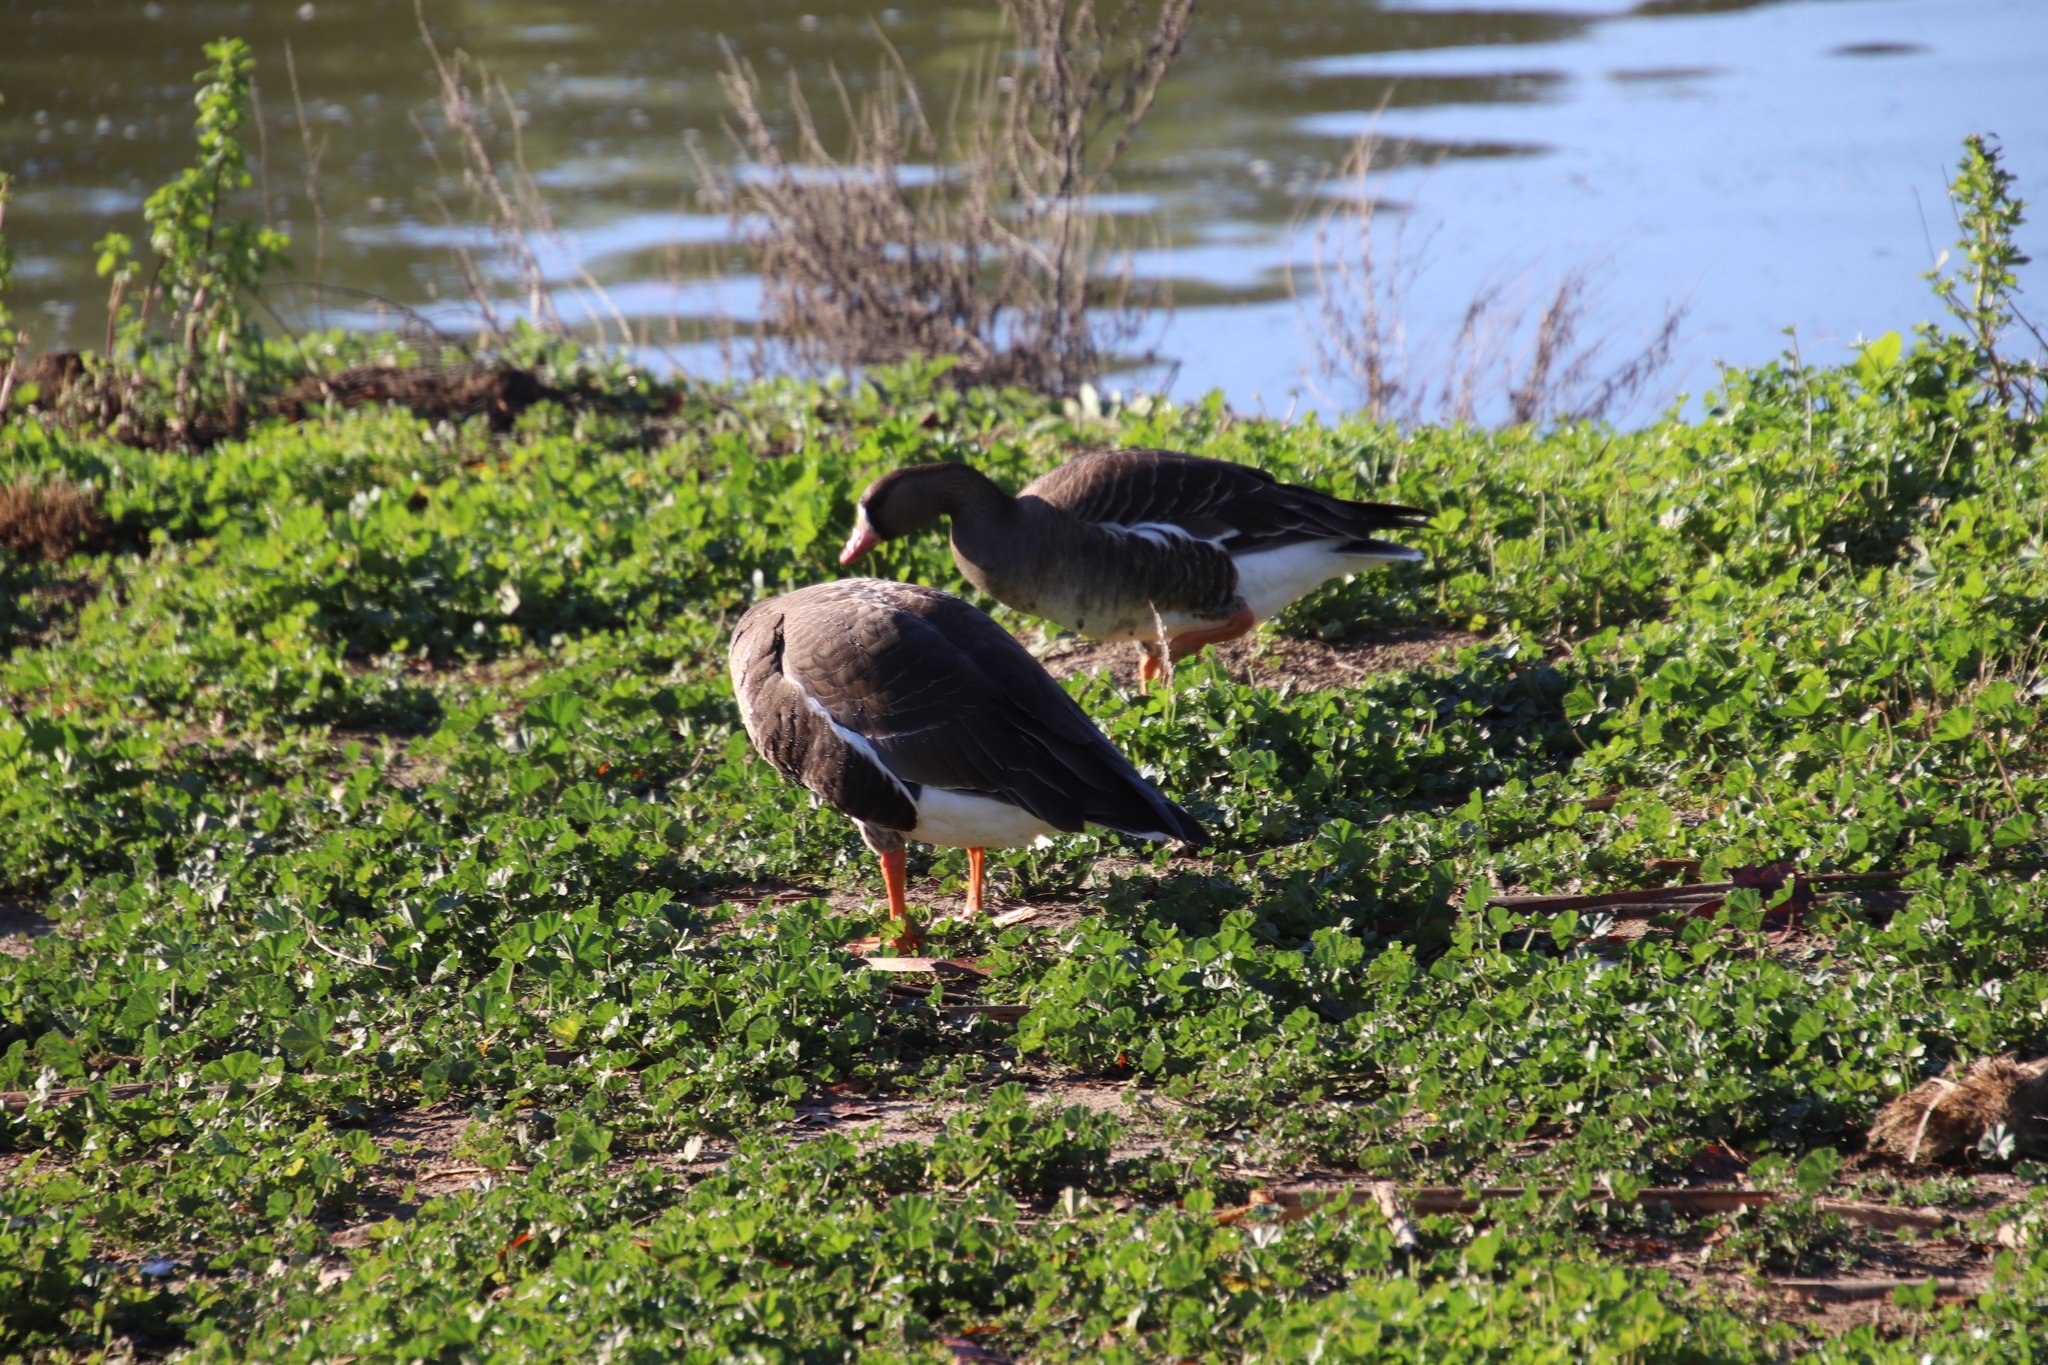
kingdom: Animalia
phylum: Chordata
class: Aves
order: Anseriformes
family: Anatidae
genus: Anser
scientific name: Anser albifrons
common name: Greater white-fronted goose
